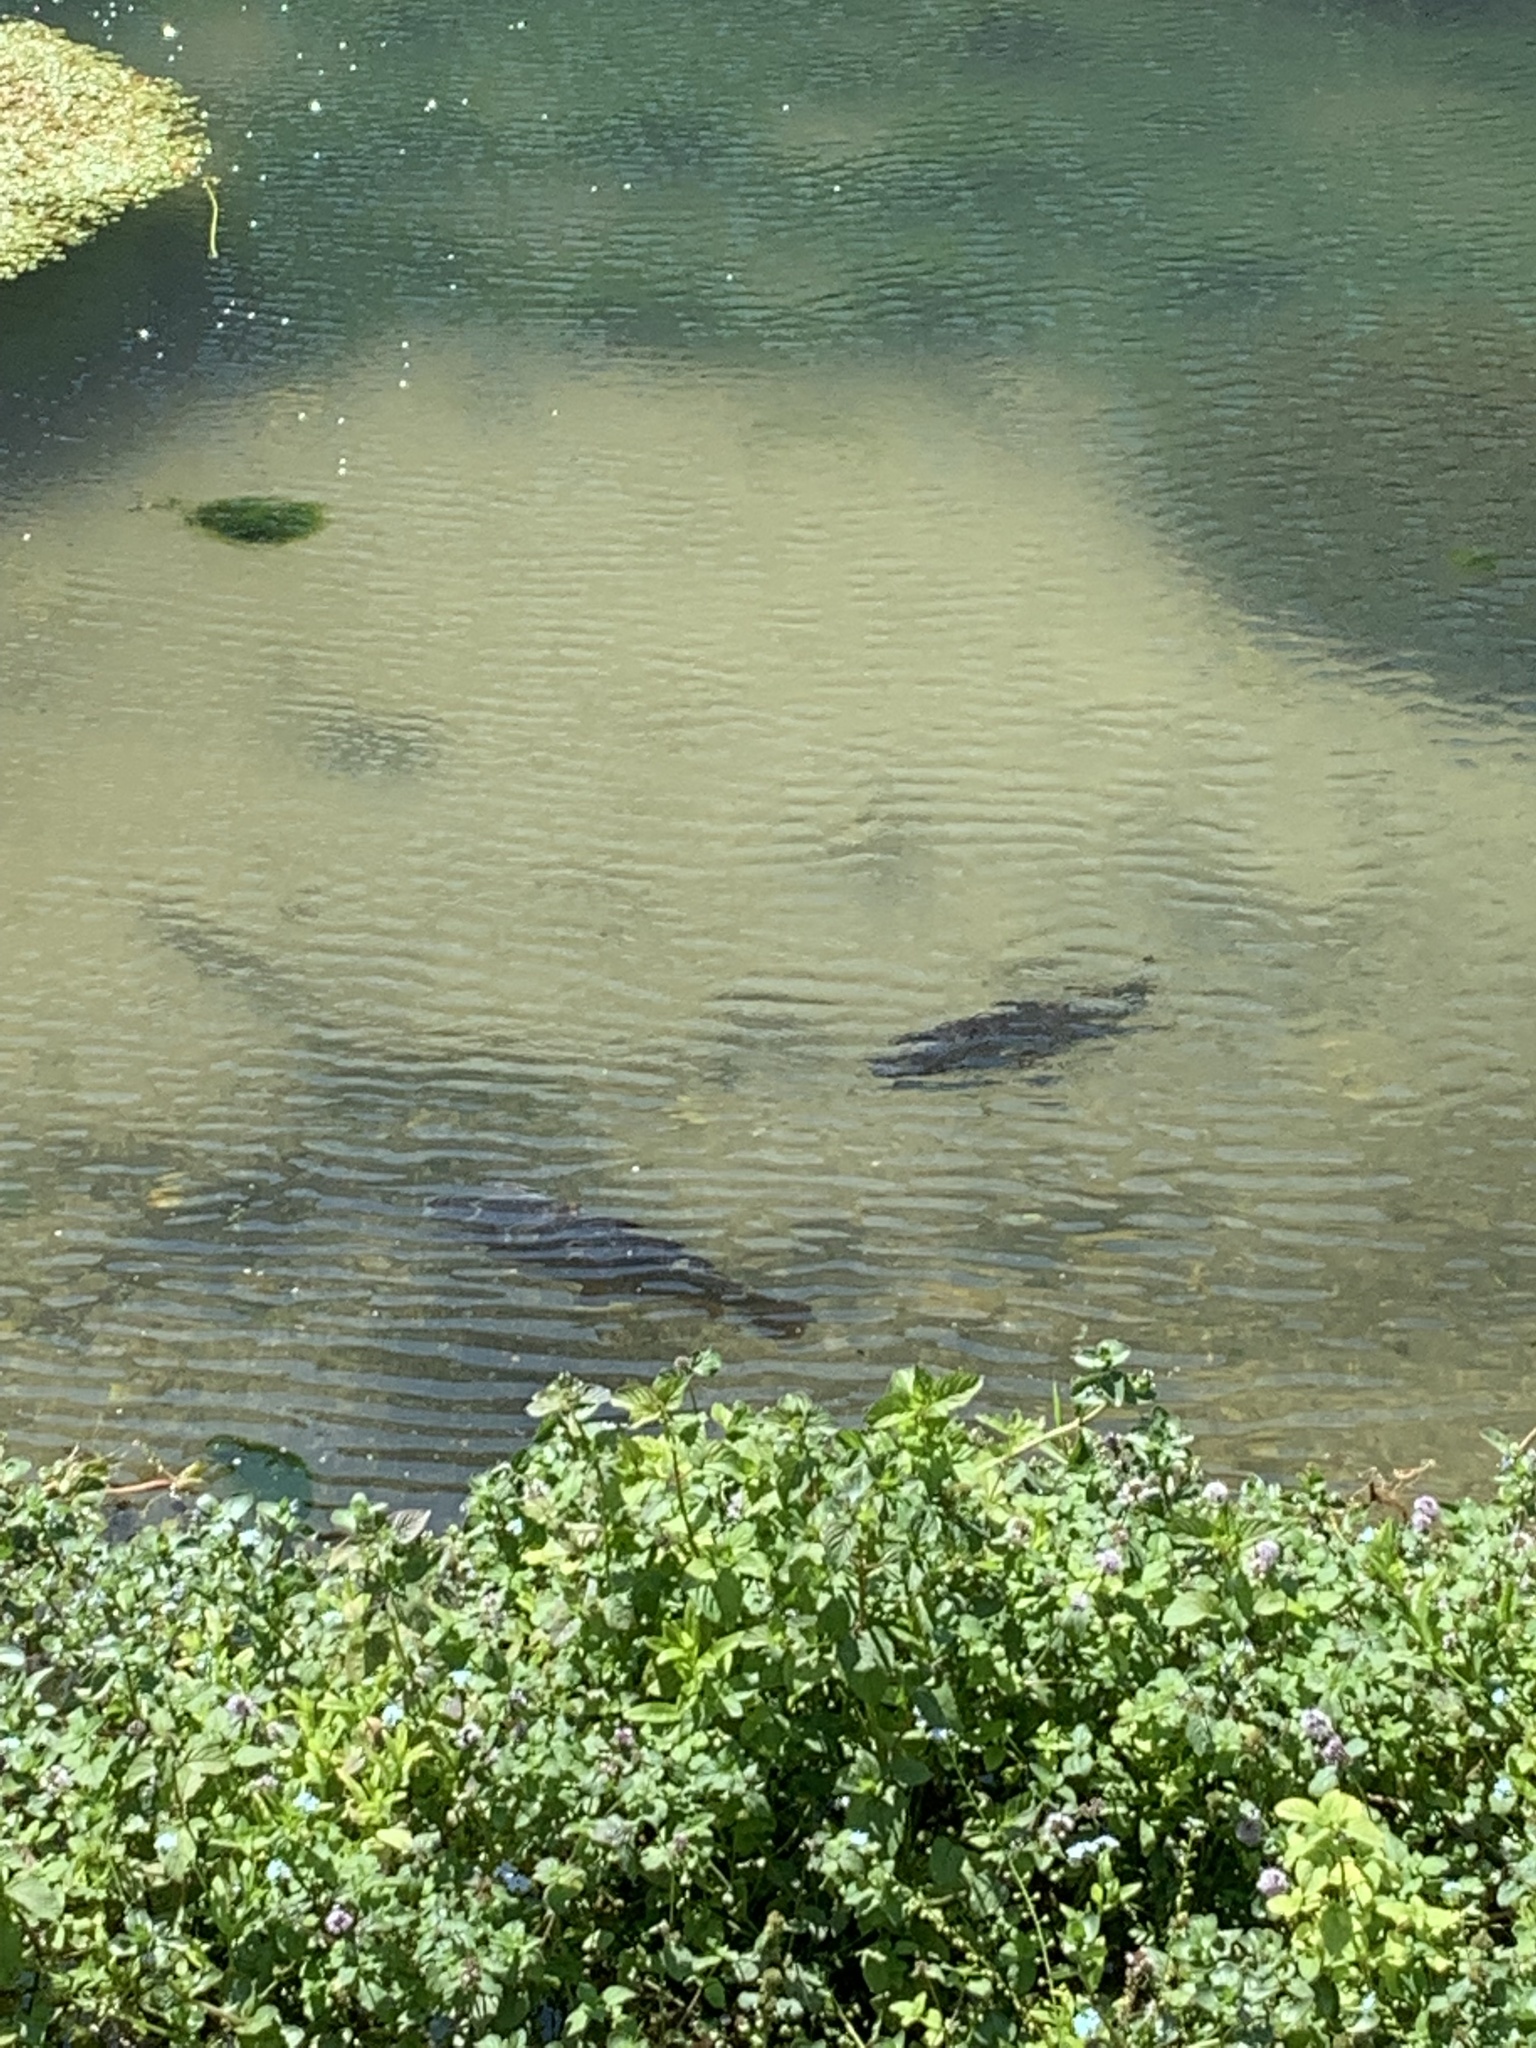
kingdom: Animalia
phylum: Chordata
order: Cypriniformes
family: Cyprinidae
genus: Cyprinus
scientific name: Cyprinus carpio
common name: Common carp
